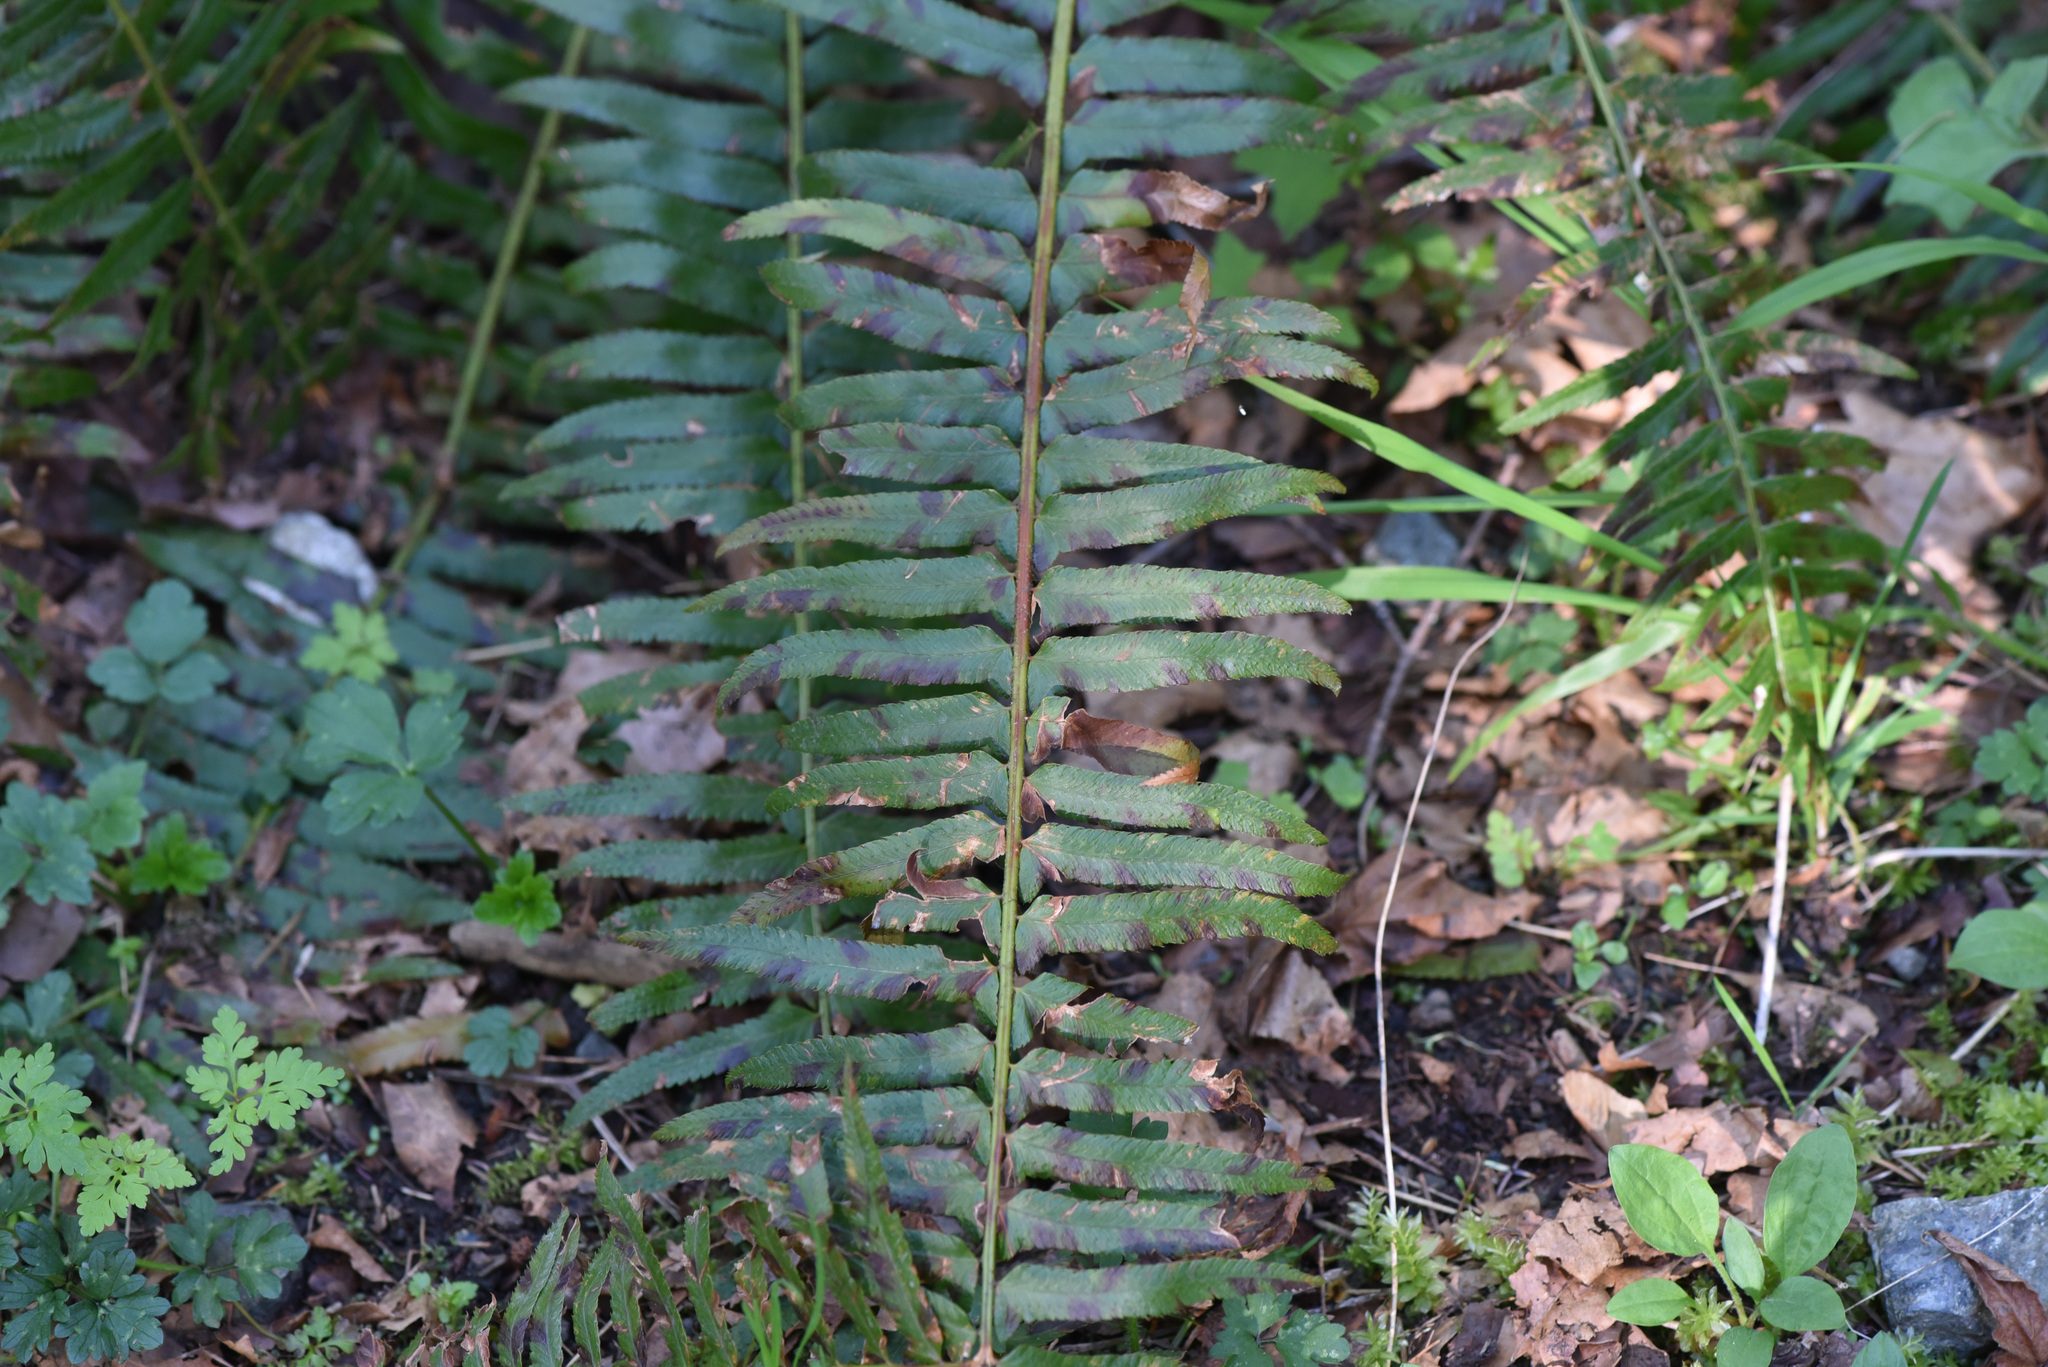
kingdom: Plantae
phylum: Tracheophyta
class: Polypodiopsida
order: Polypodiales
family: Dryopteridaceae
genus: Polystichum
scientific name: Polystichum munitum
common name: Western sword-fern
